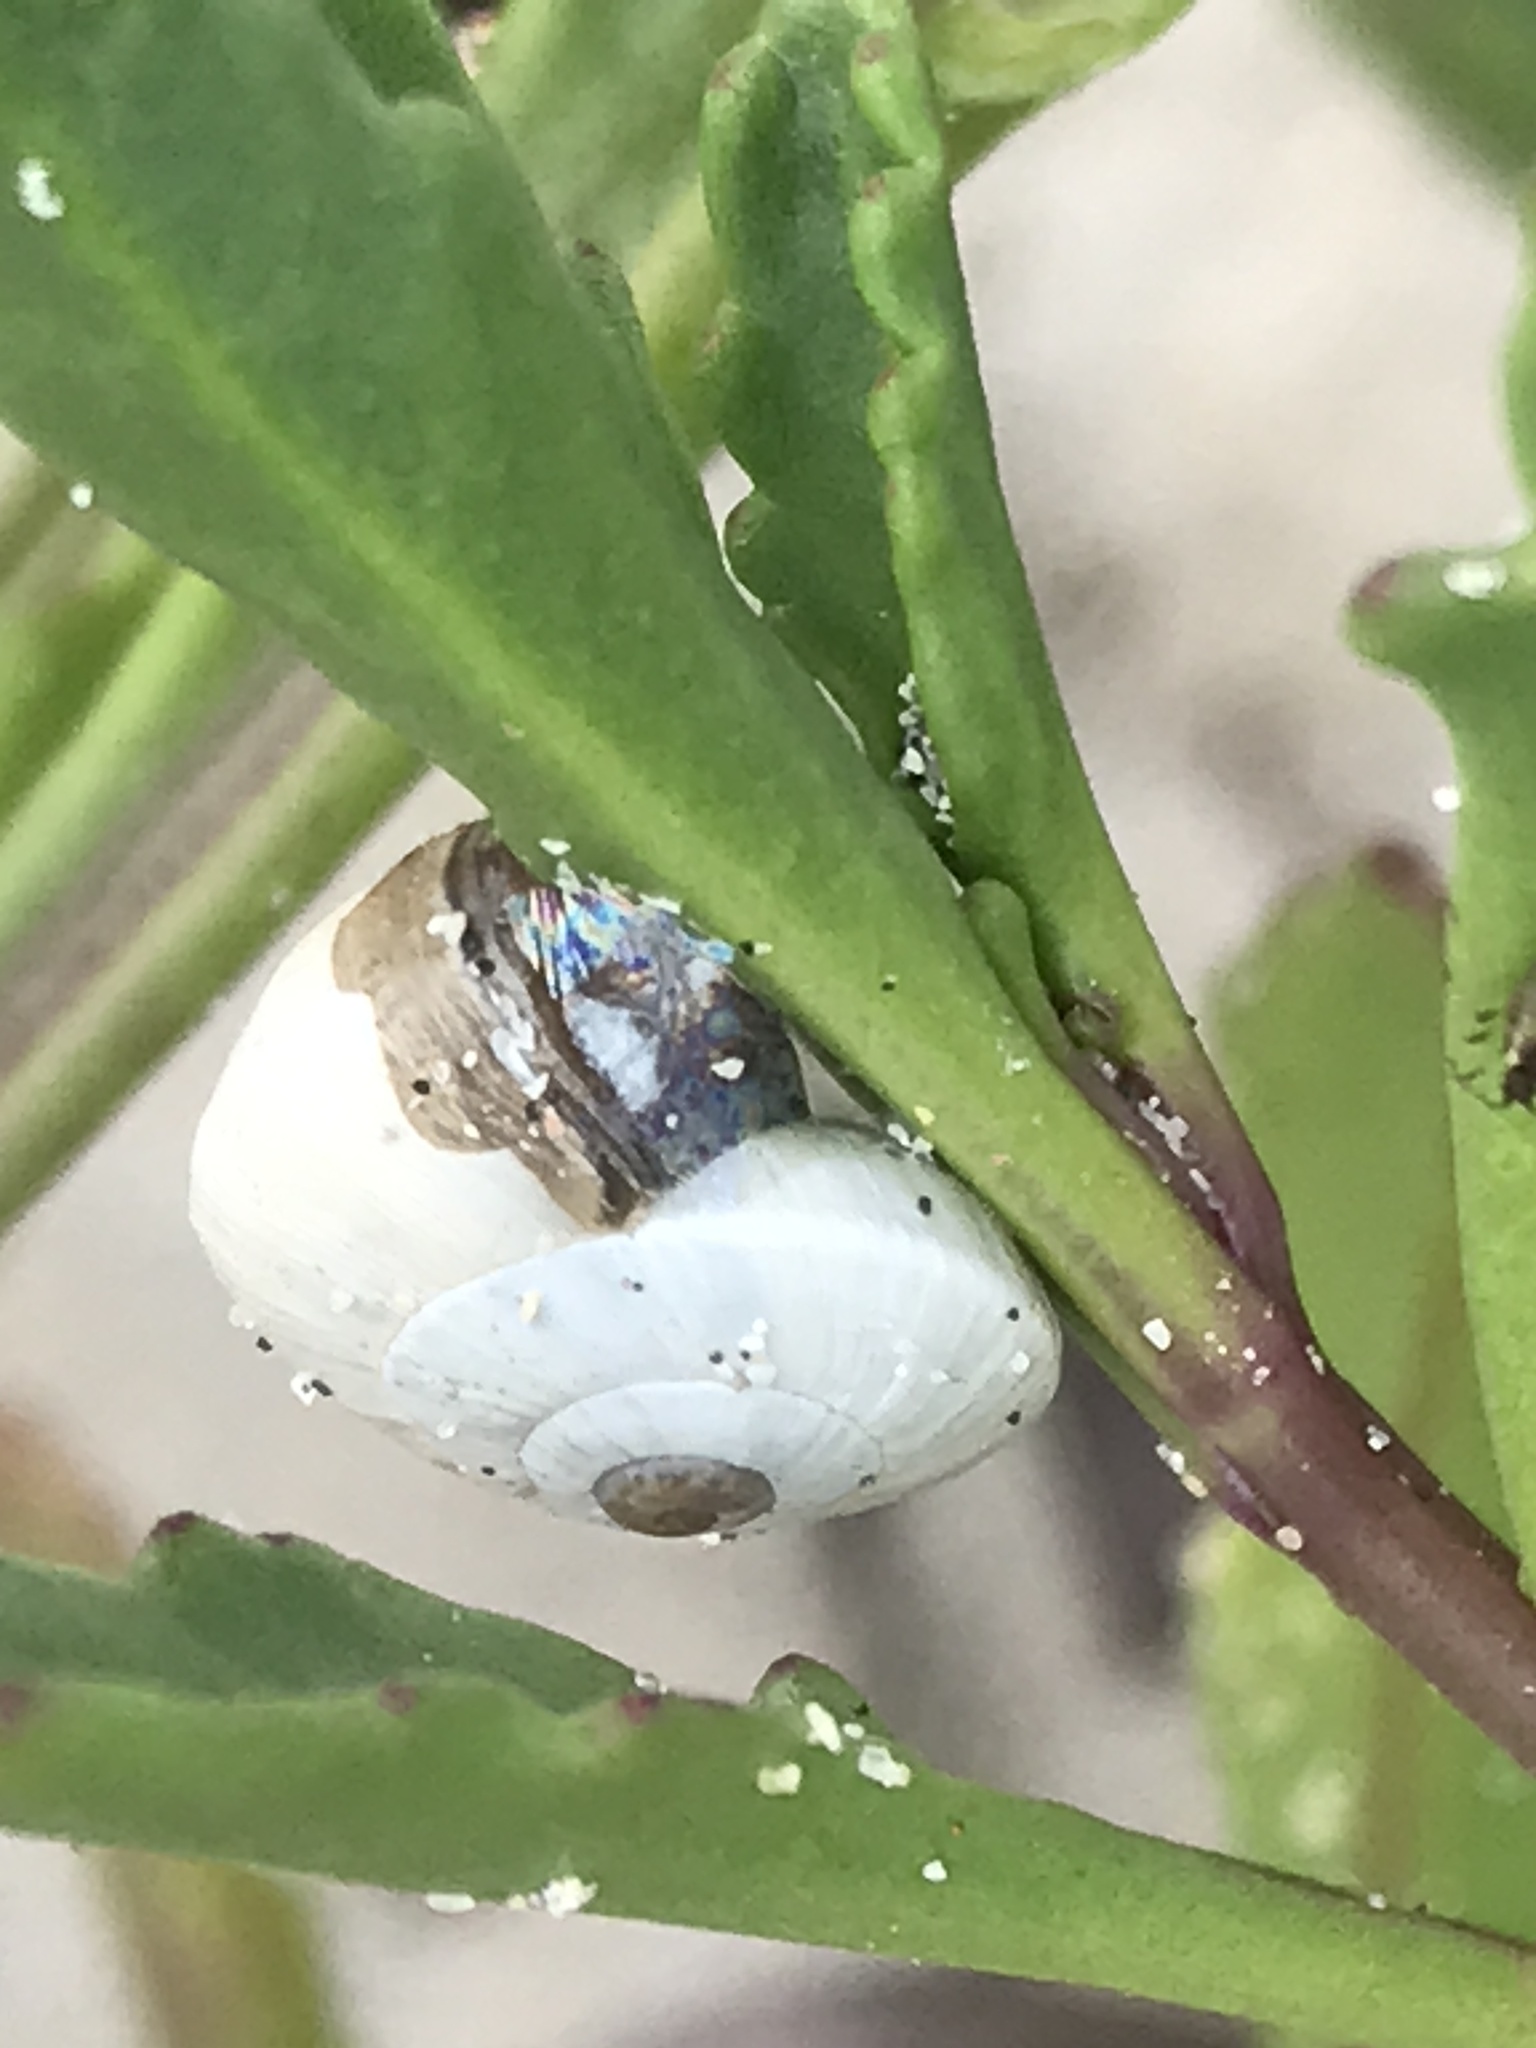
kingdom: Animalia
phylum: Mollusca
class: Gastropoda
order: Stylommatophora
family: Helicidae
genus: Theba
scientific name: Theba pisana
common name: White snail
